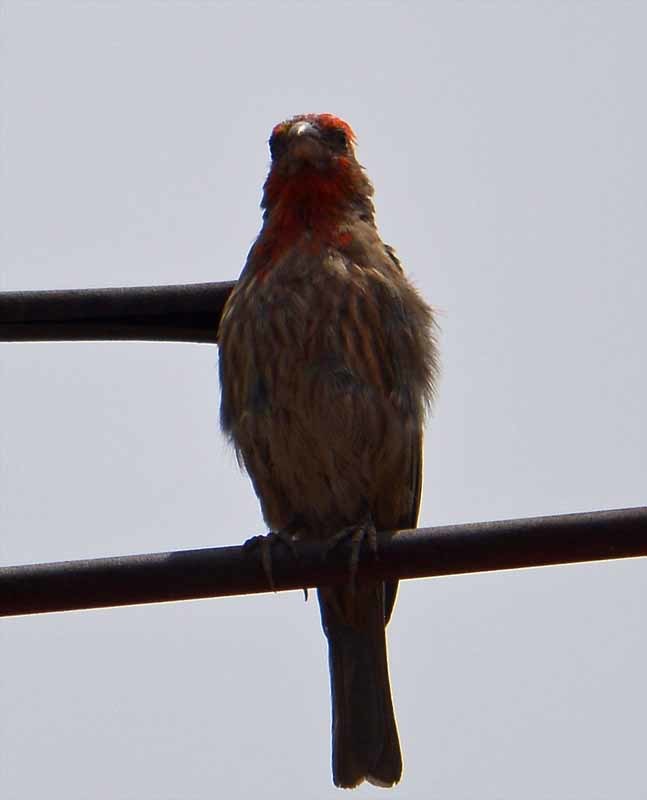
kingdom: Animalia
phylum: Chordata
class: Aves
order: Passeriformes
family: Fringillidae
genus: Haemorhous
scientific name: Haemorhous mexicanus
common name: House finch
